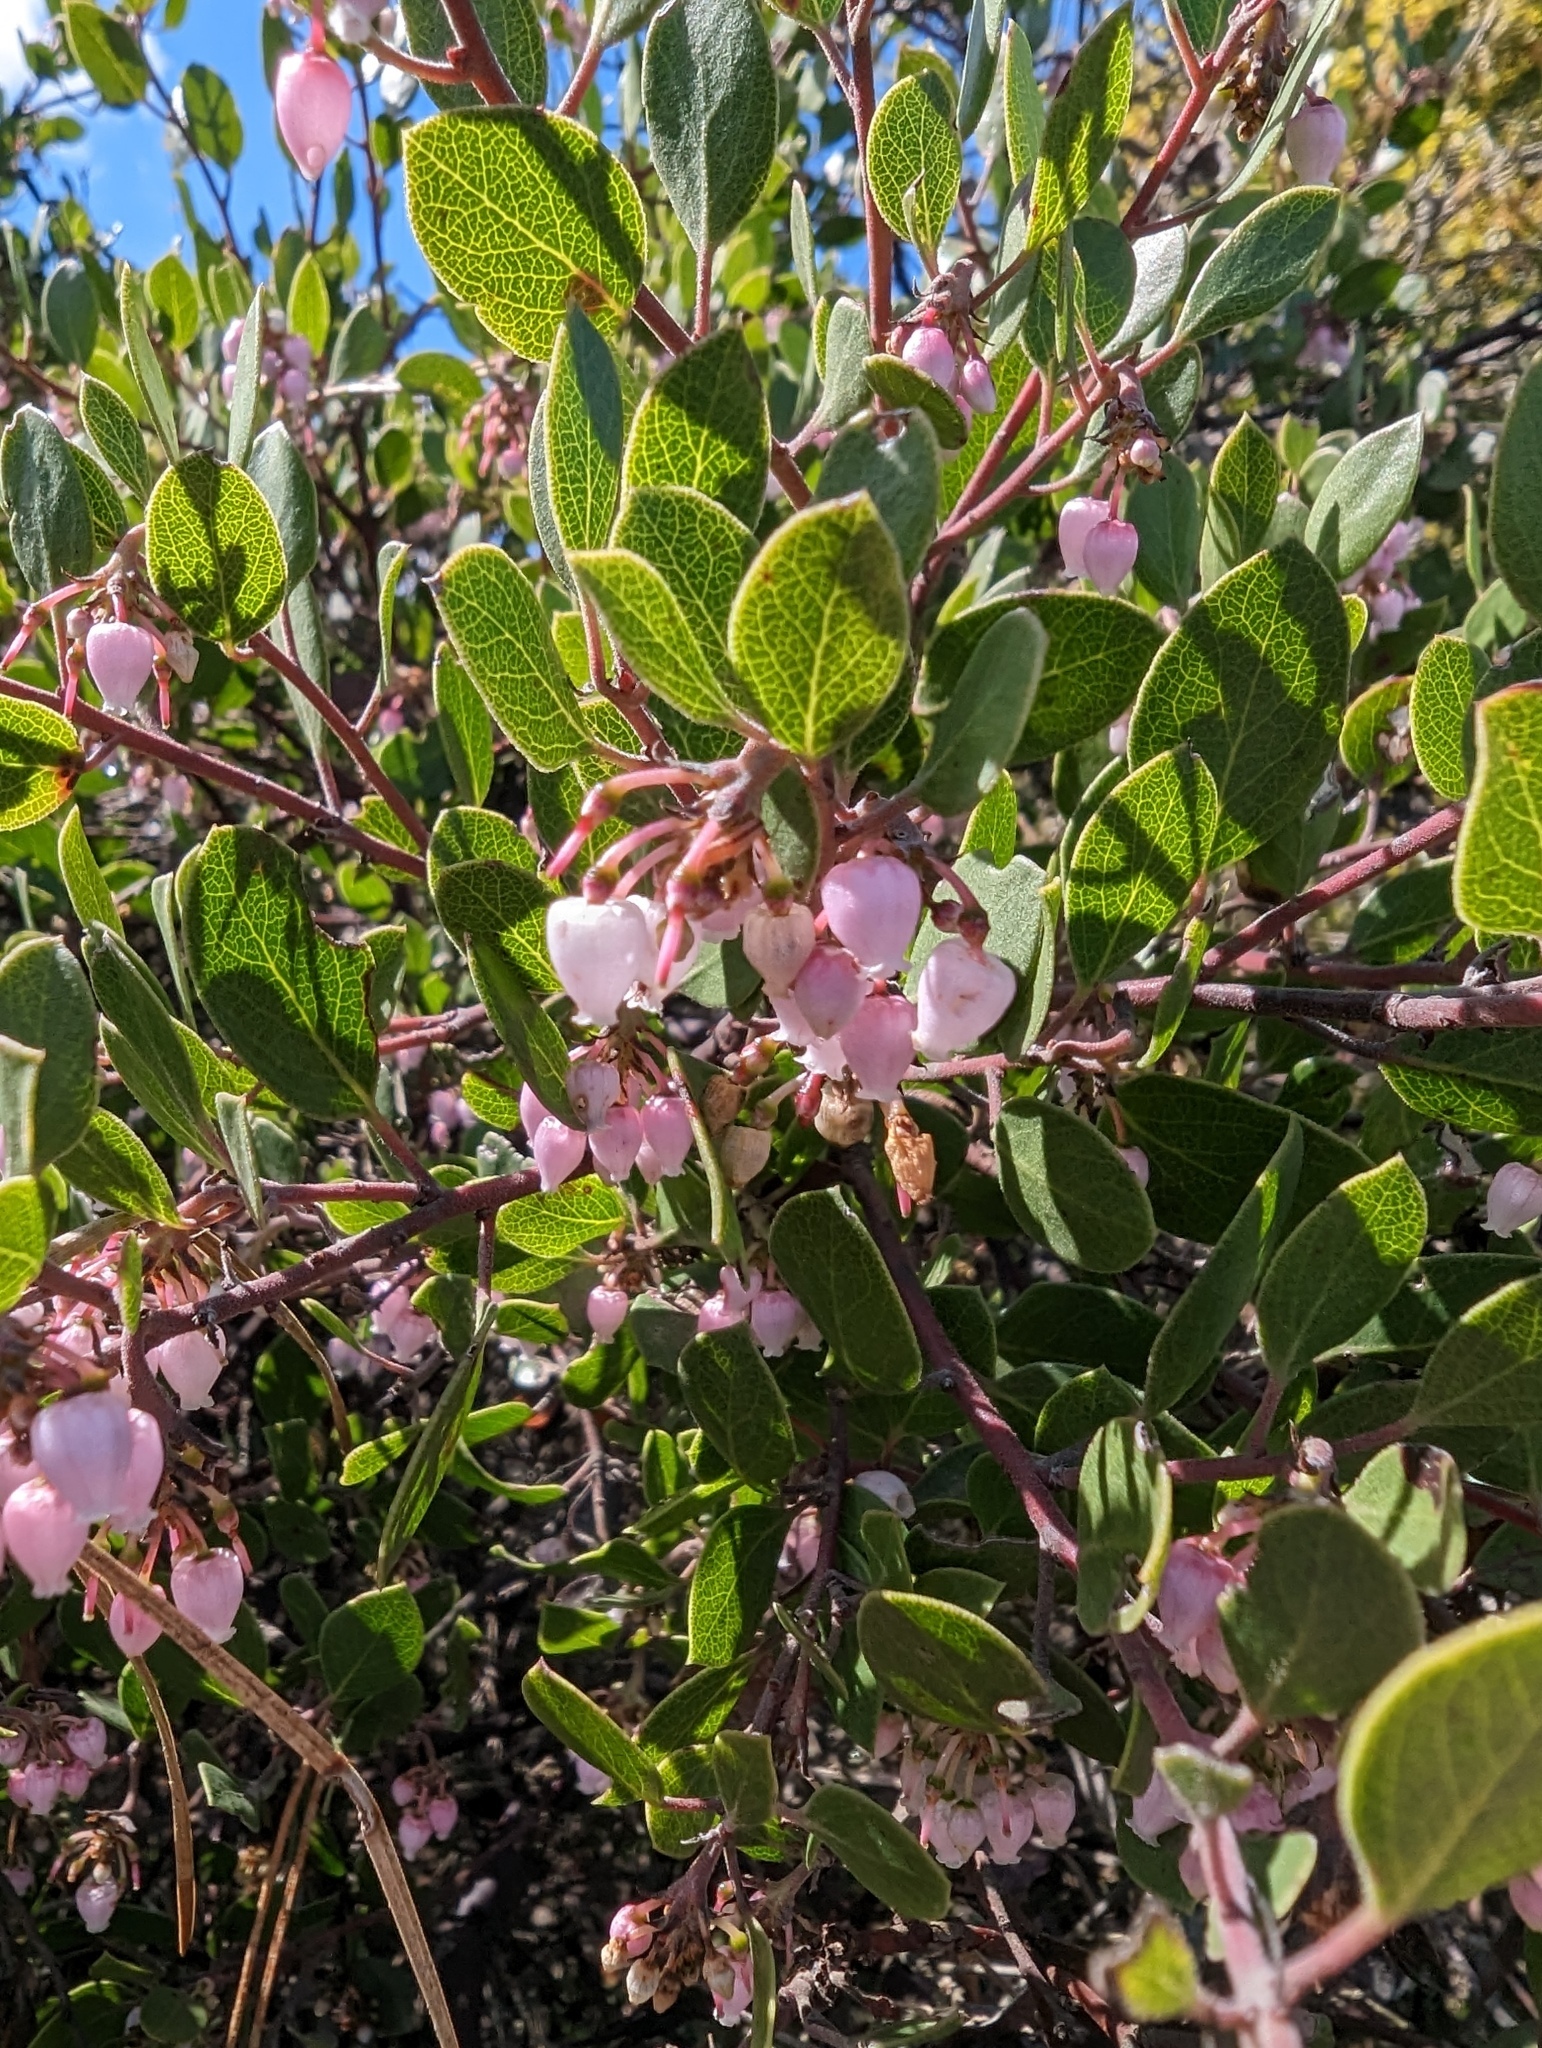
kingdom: Plantae
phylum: Tracheophyta
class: Magnoliopsida
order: Ericales
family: Ericaceae
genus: Arctostaphylos
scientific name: Arctostaphylos hookeri
